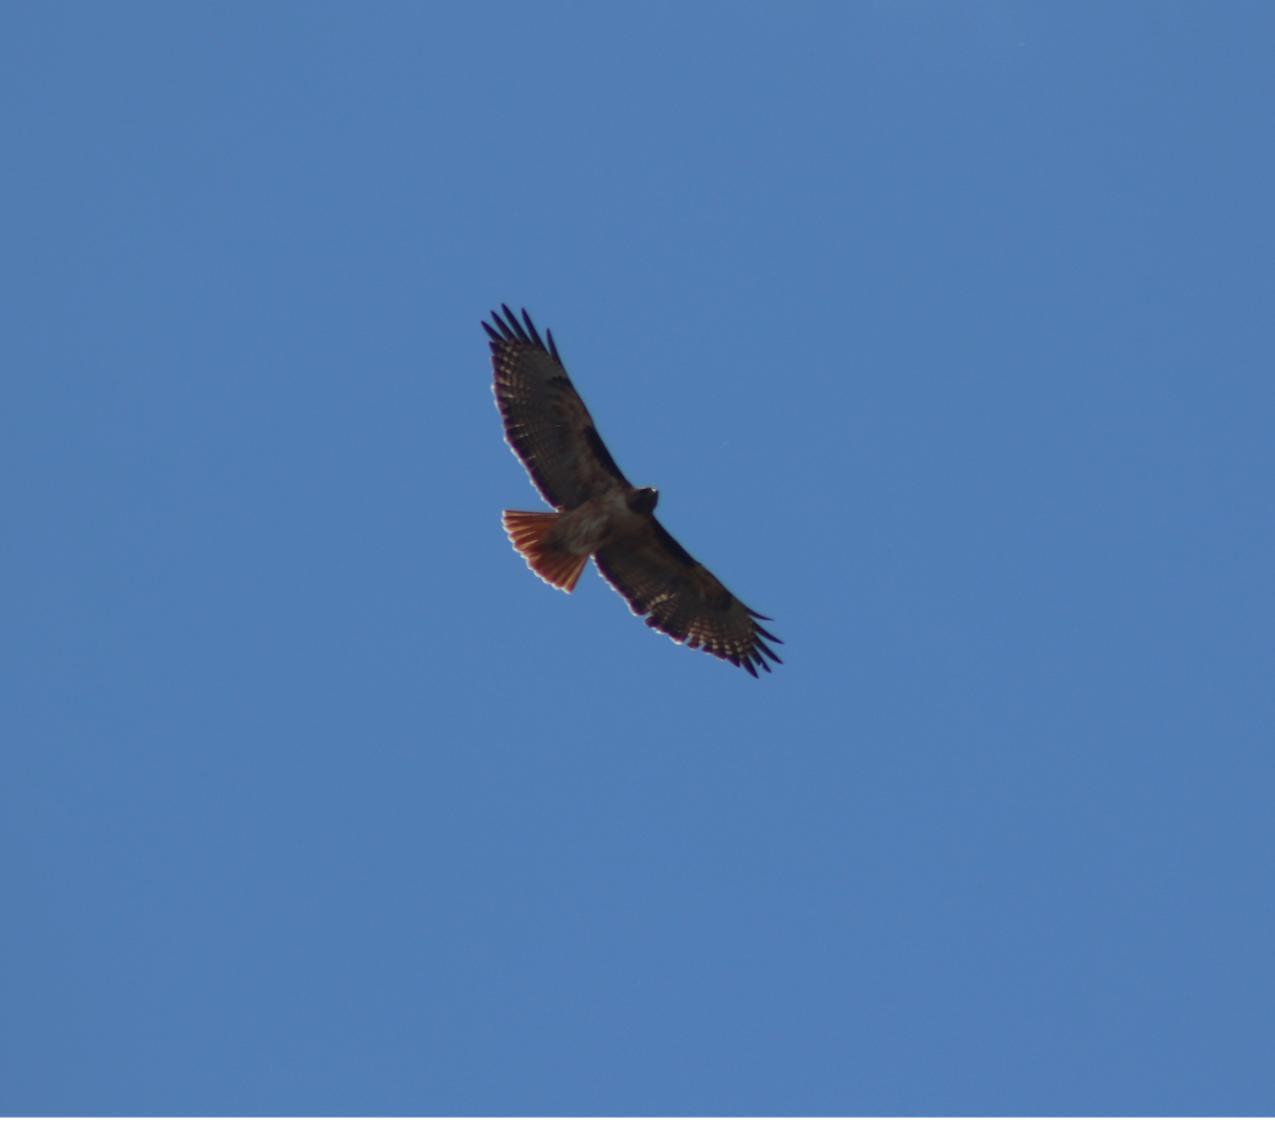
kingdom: Animalia
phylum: Chordata
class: Aves
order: Accipitriformes
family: Accipitridae
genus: Buteo
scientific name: Buteo jamaicensis
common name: Red-tailed hawk
